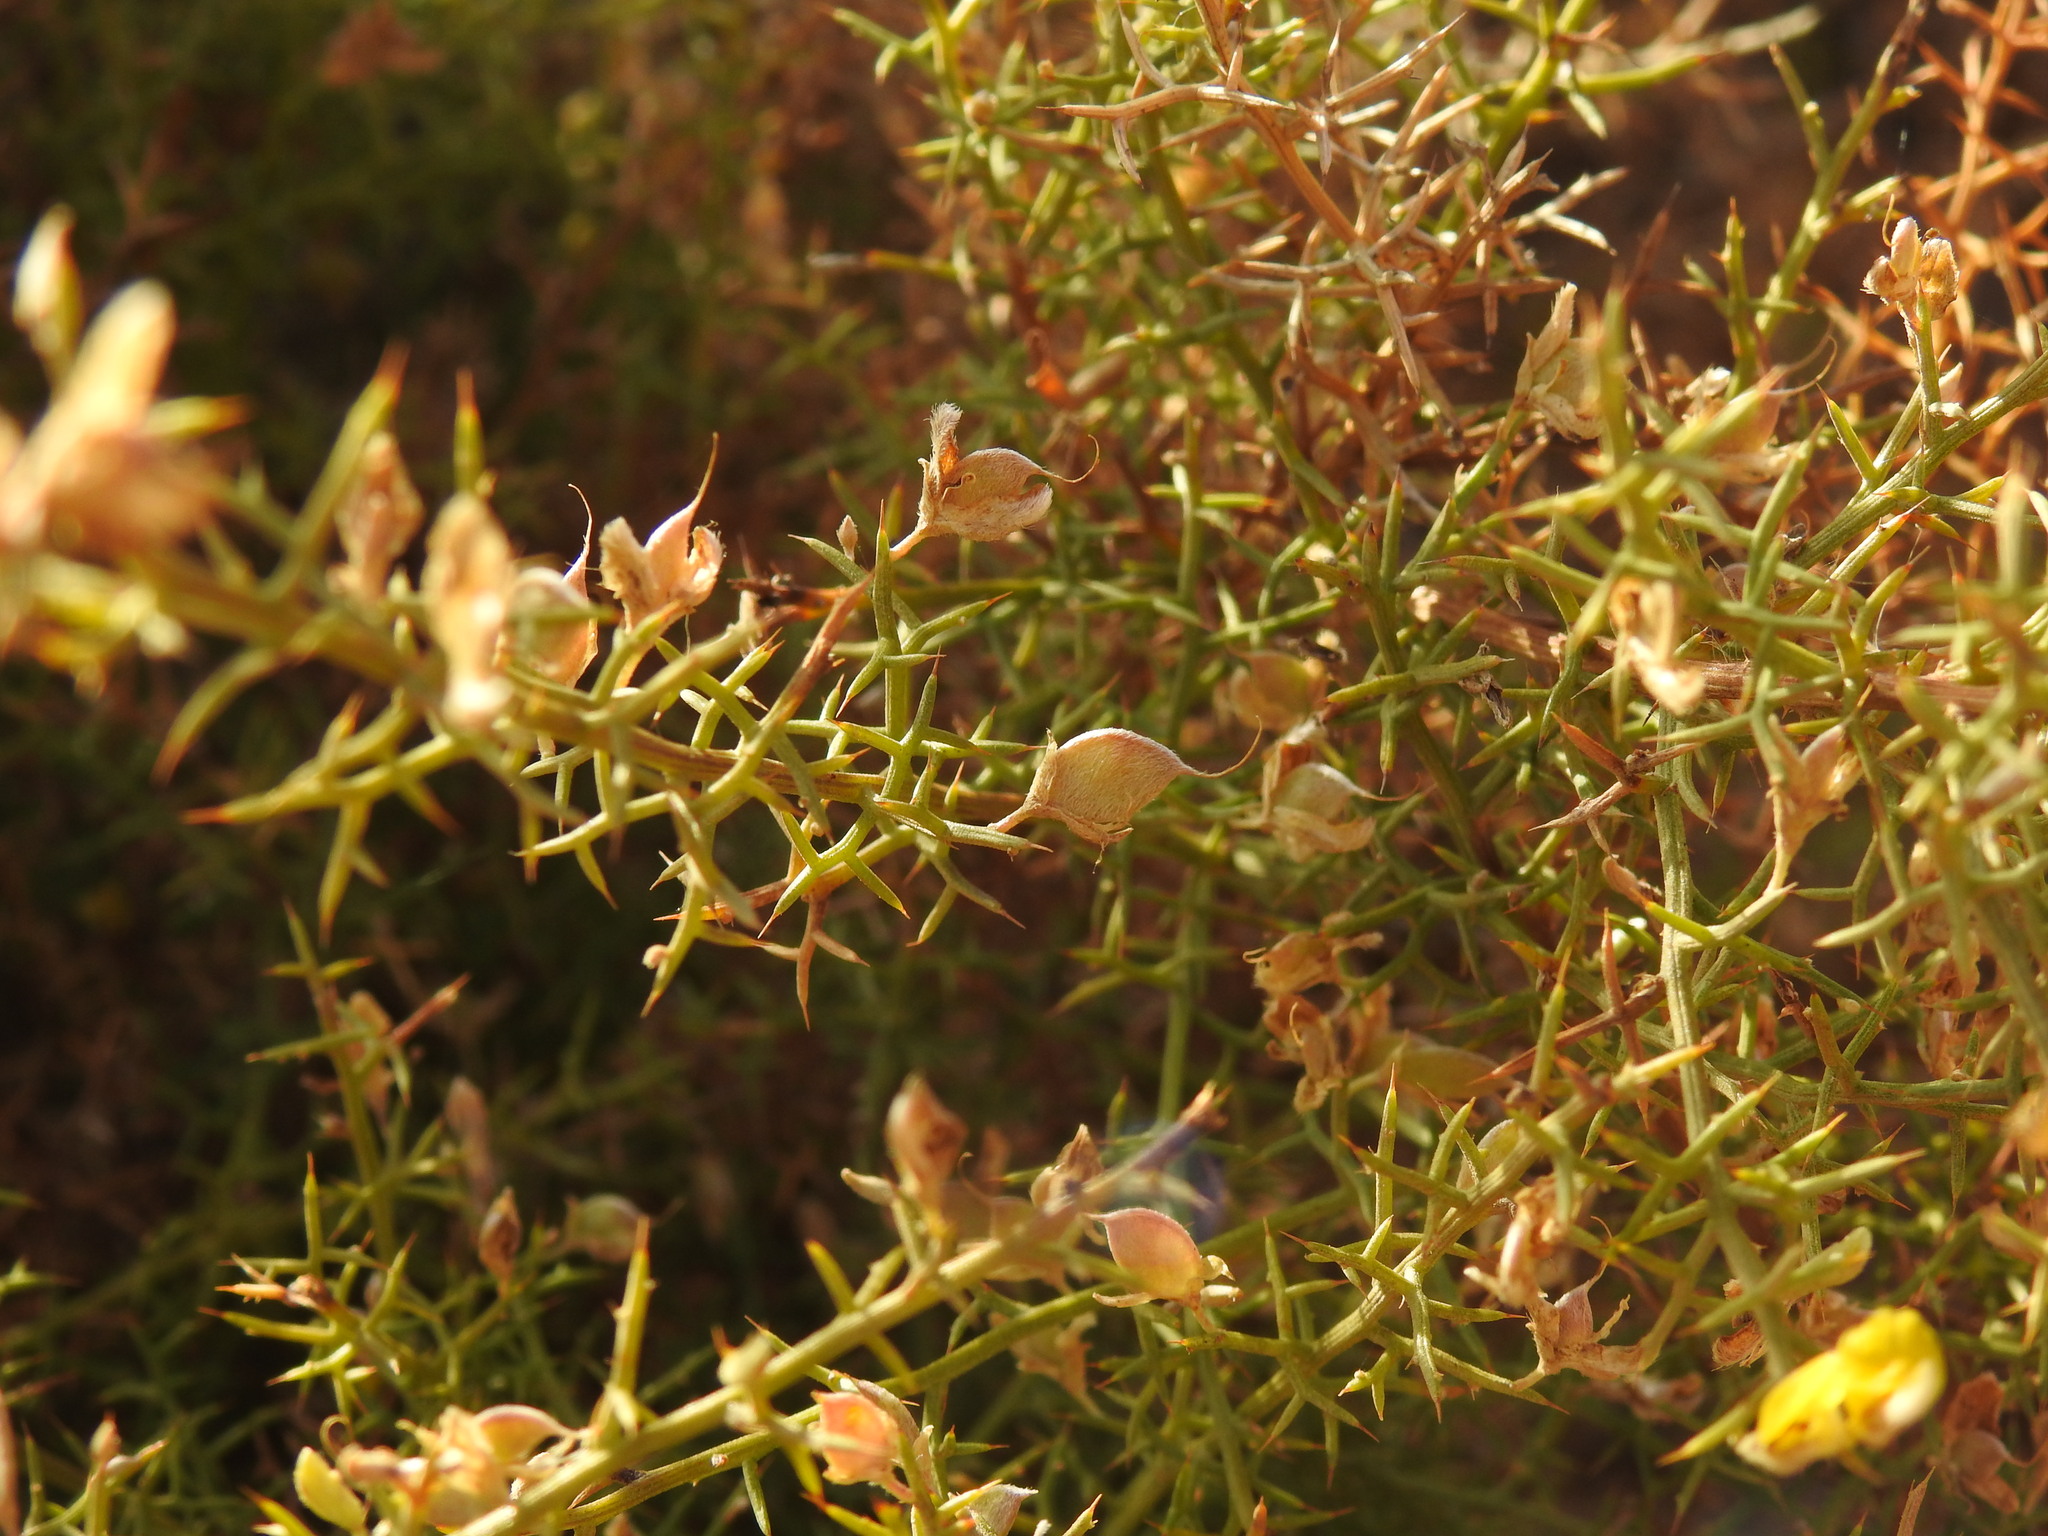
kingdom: Plantae
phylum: Tracheophyta
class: Magnoliopsida
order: Fabales
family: Fabaceae
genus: Stauracanthus
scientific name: Stauracanthus boivinii
